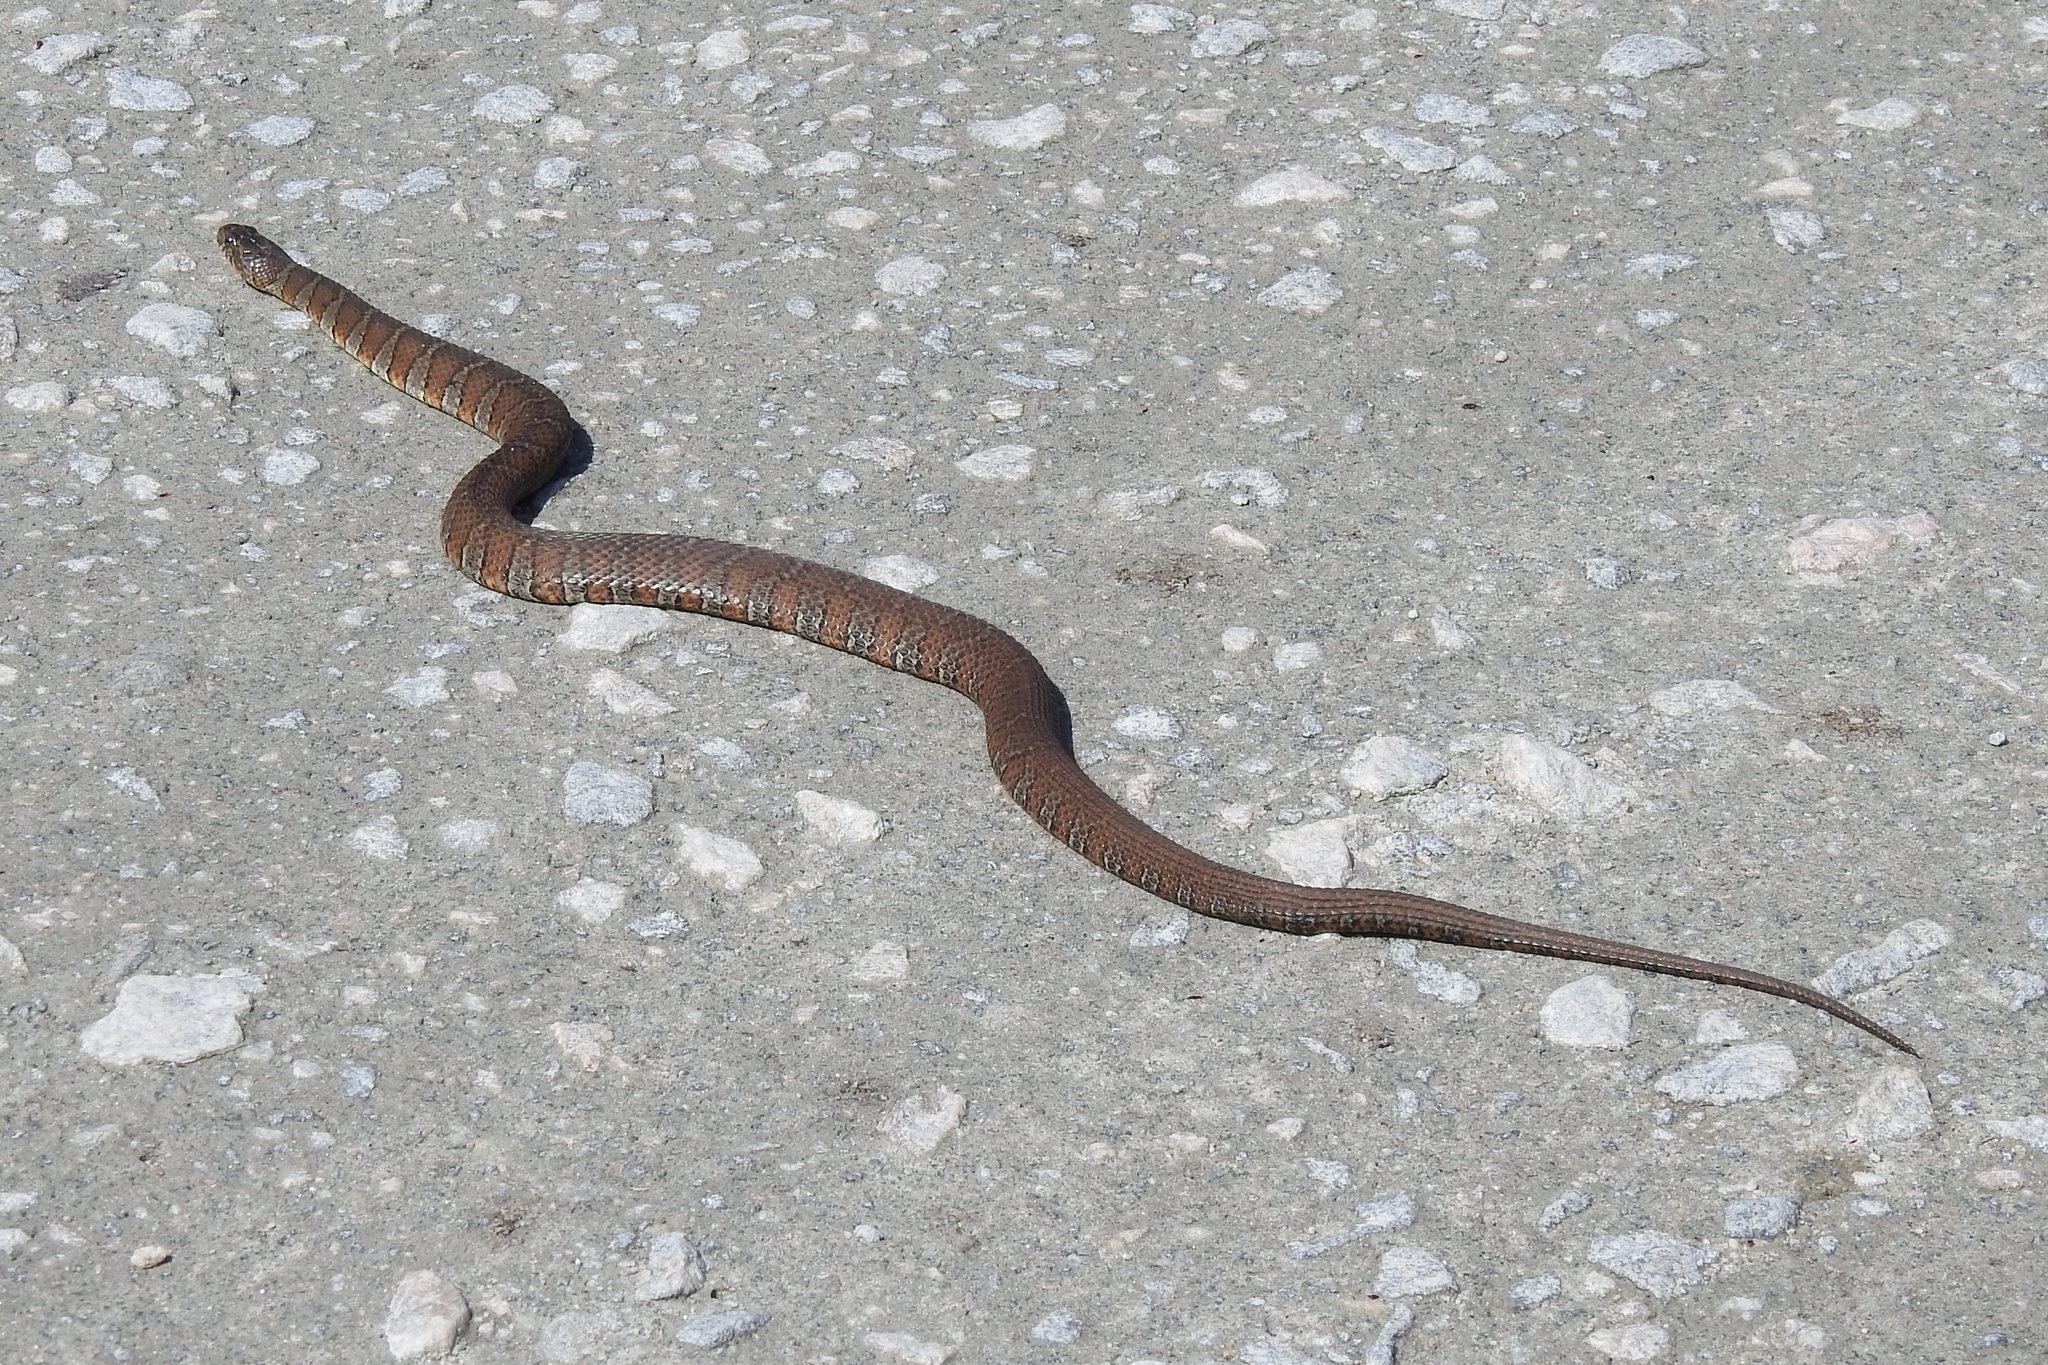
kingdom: Animalia
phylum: Chordata
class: Squamata
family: Colubridae
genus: Nerodia
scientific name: Nerodia sipedon
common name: Northern water snake
